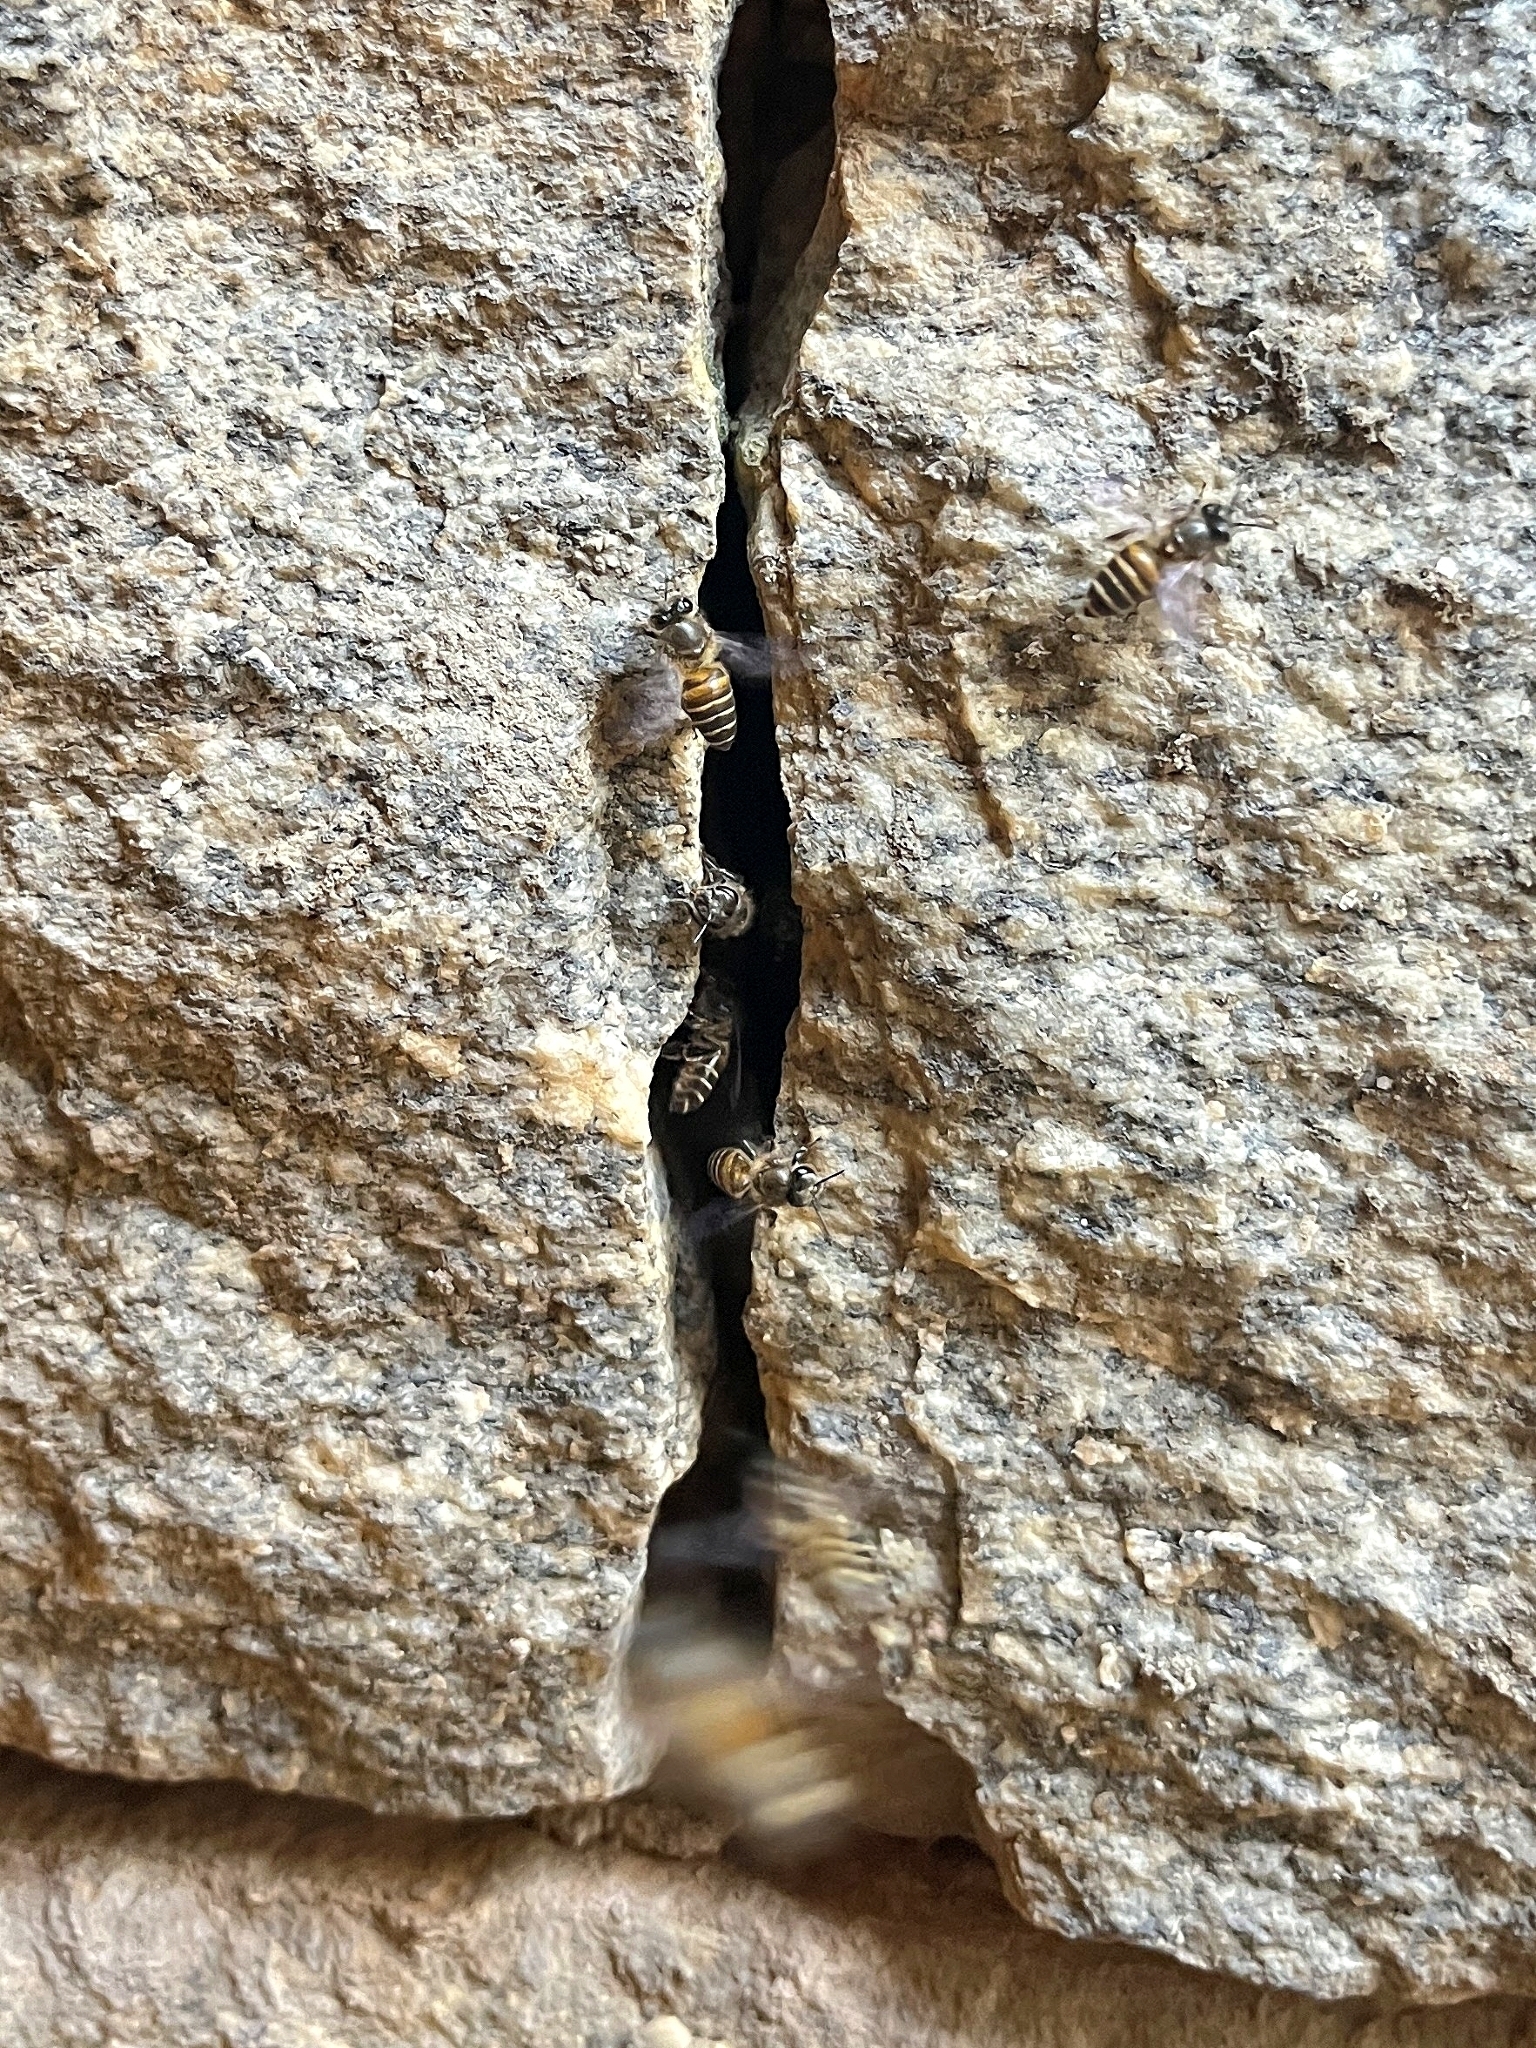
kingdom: Animalia
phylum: Arthropoda
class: Insecta
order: Hymenoptera
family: Apidae
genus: Apis
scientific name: Apis cerana
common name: Honey bee
